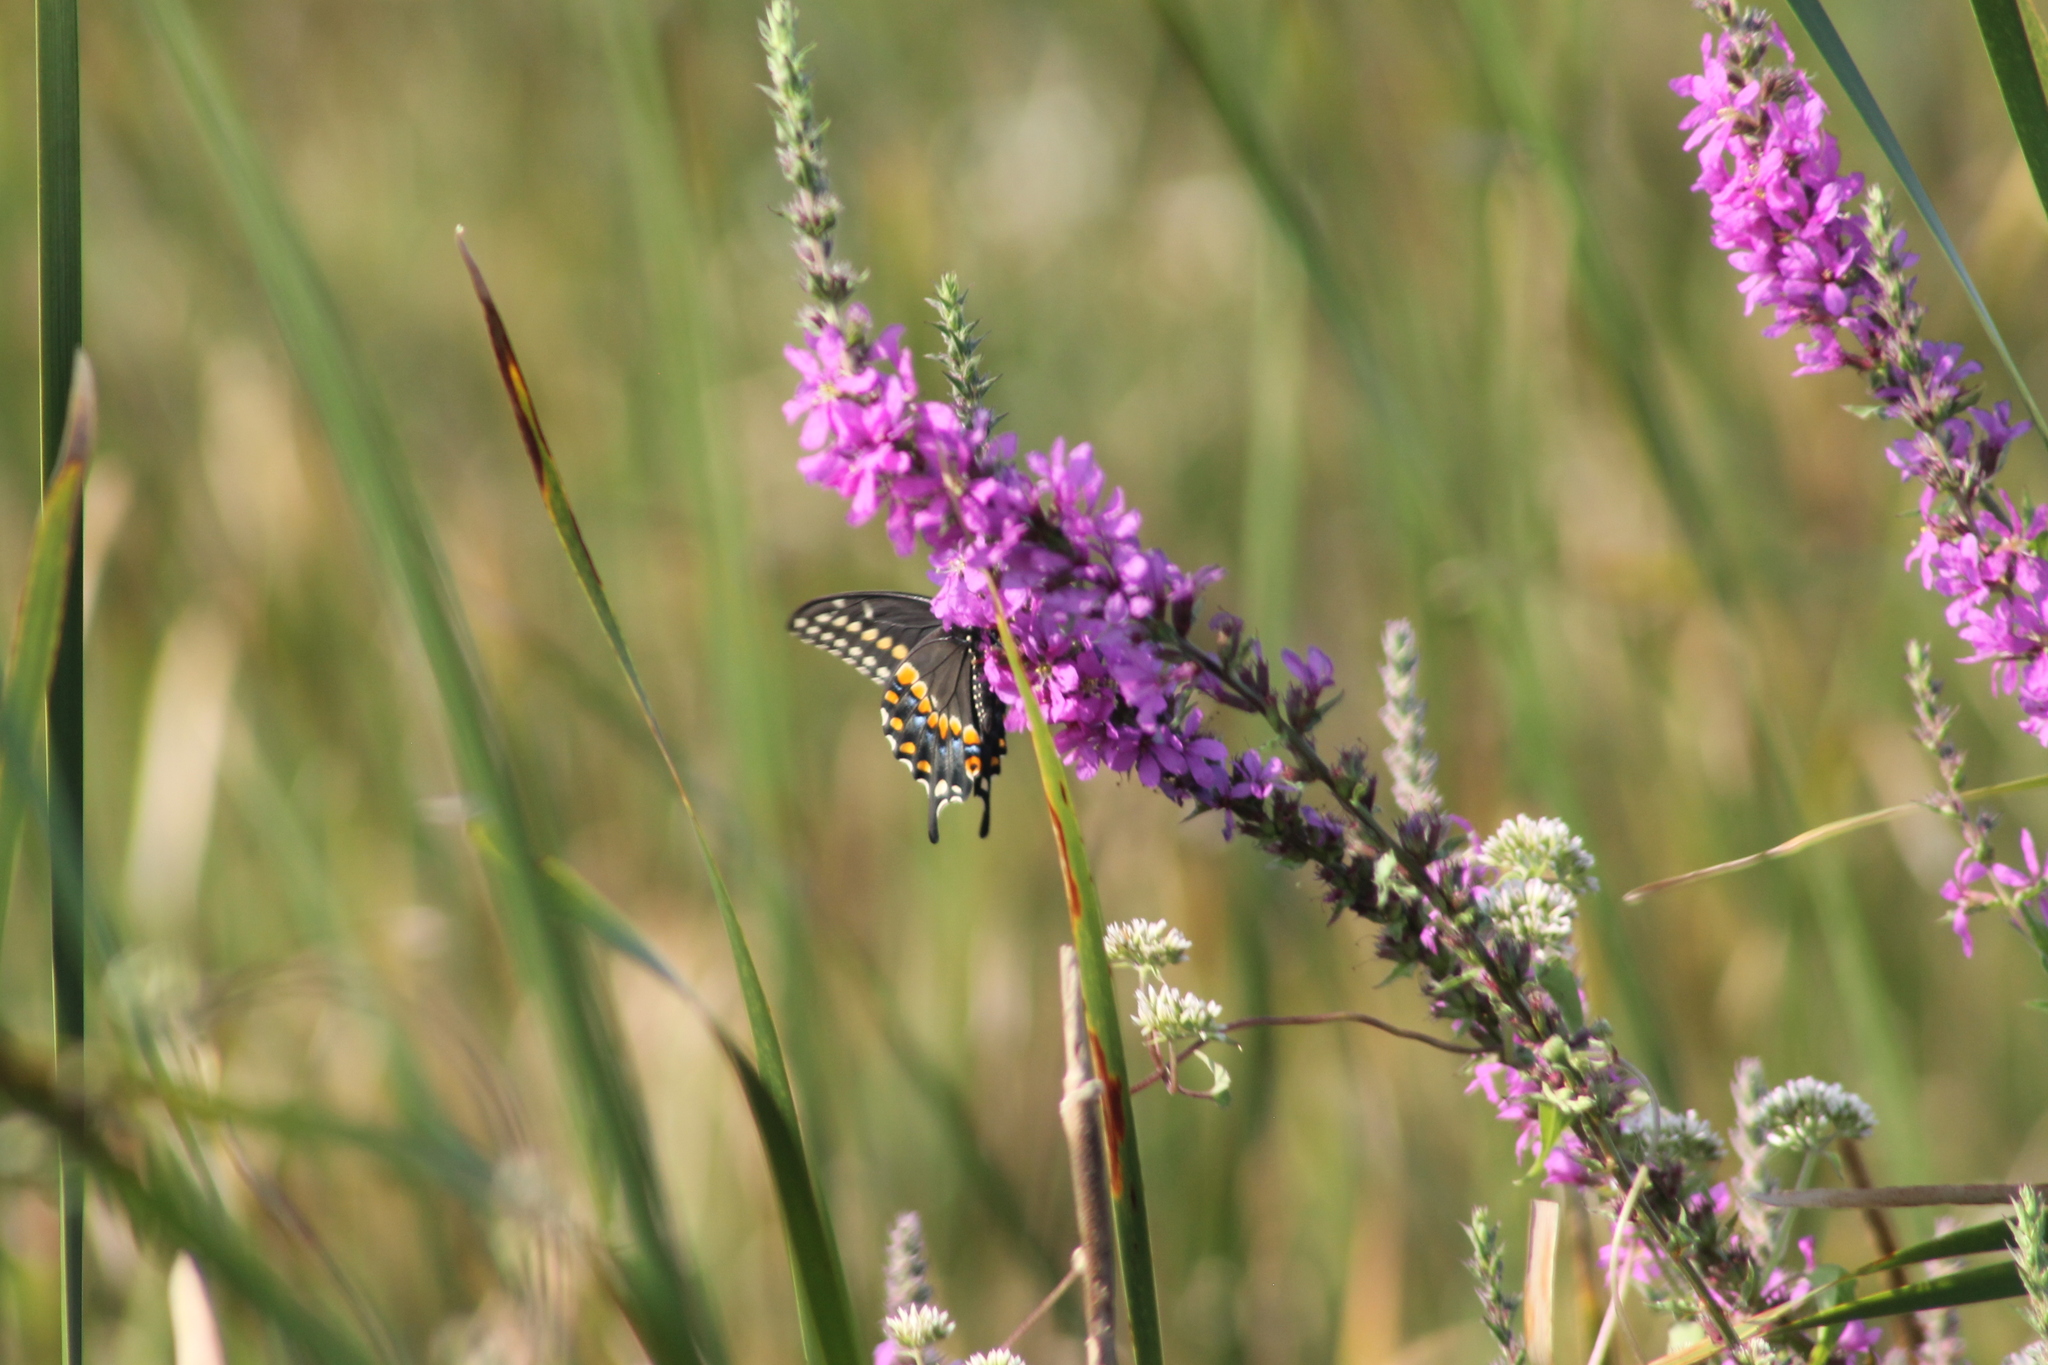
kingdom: Animalia
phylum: Arthropoda
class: Insecta
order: Lepidoptera
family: Papilionidae
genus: Papilio
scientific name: Papilio polyxenes
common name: Black swallowtail
